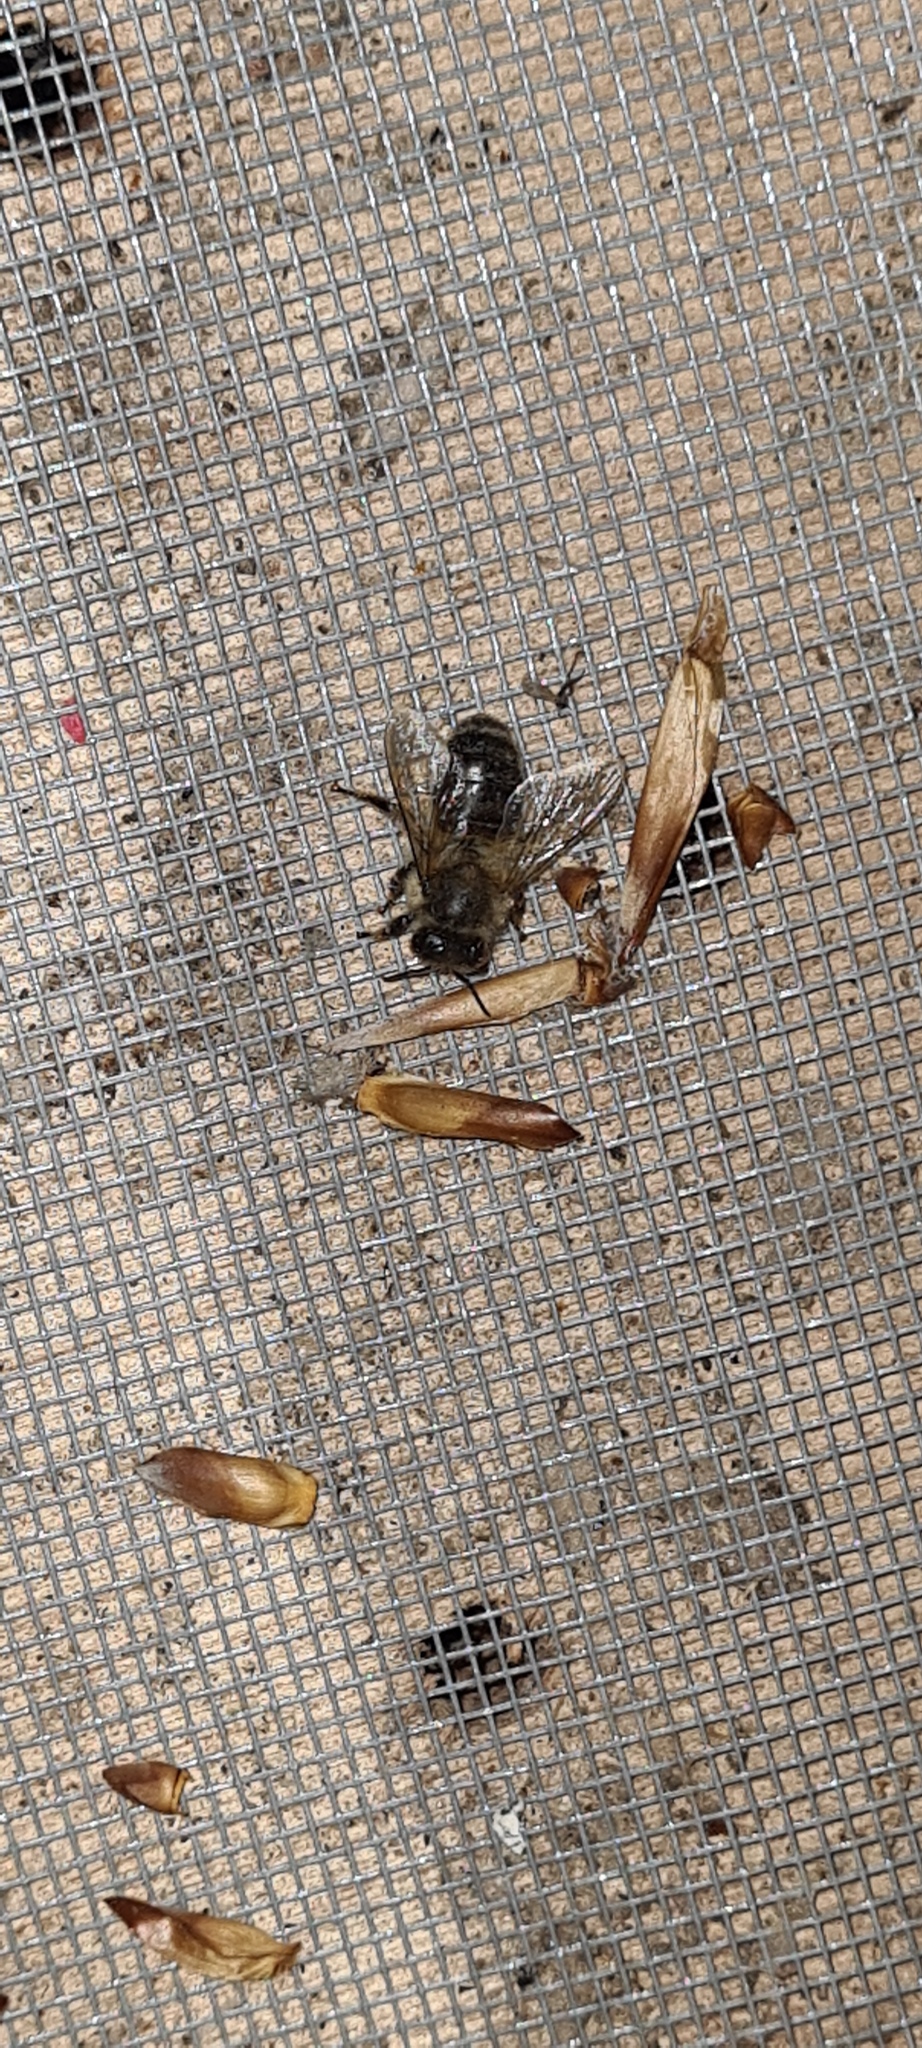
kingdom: Animalia
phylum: Arthropoda
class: Insecta
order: Hymenoptera
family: Apidae
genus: Apis
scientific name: Apis mellifera
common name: Honey bee
